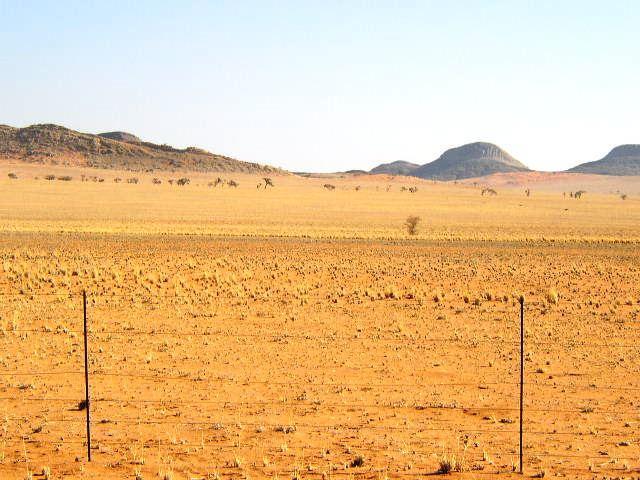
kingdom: Plantae
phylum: Tracheophyta
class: Magnoliopsida
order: Fabales
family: Fabaceae
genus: Vachellia
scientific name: Vachellia erioloba
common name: Camel thorn
